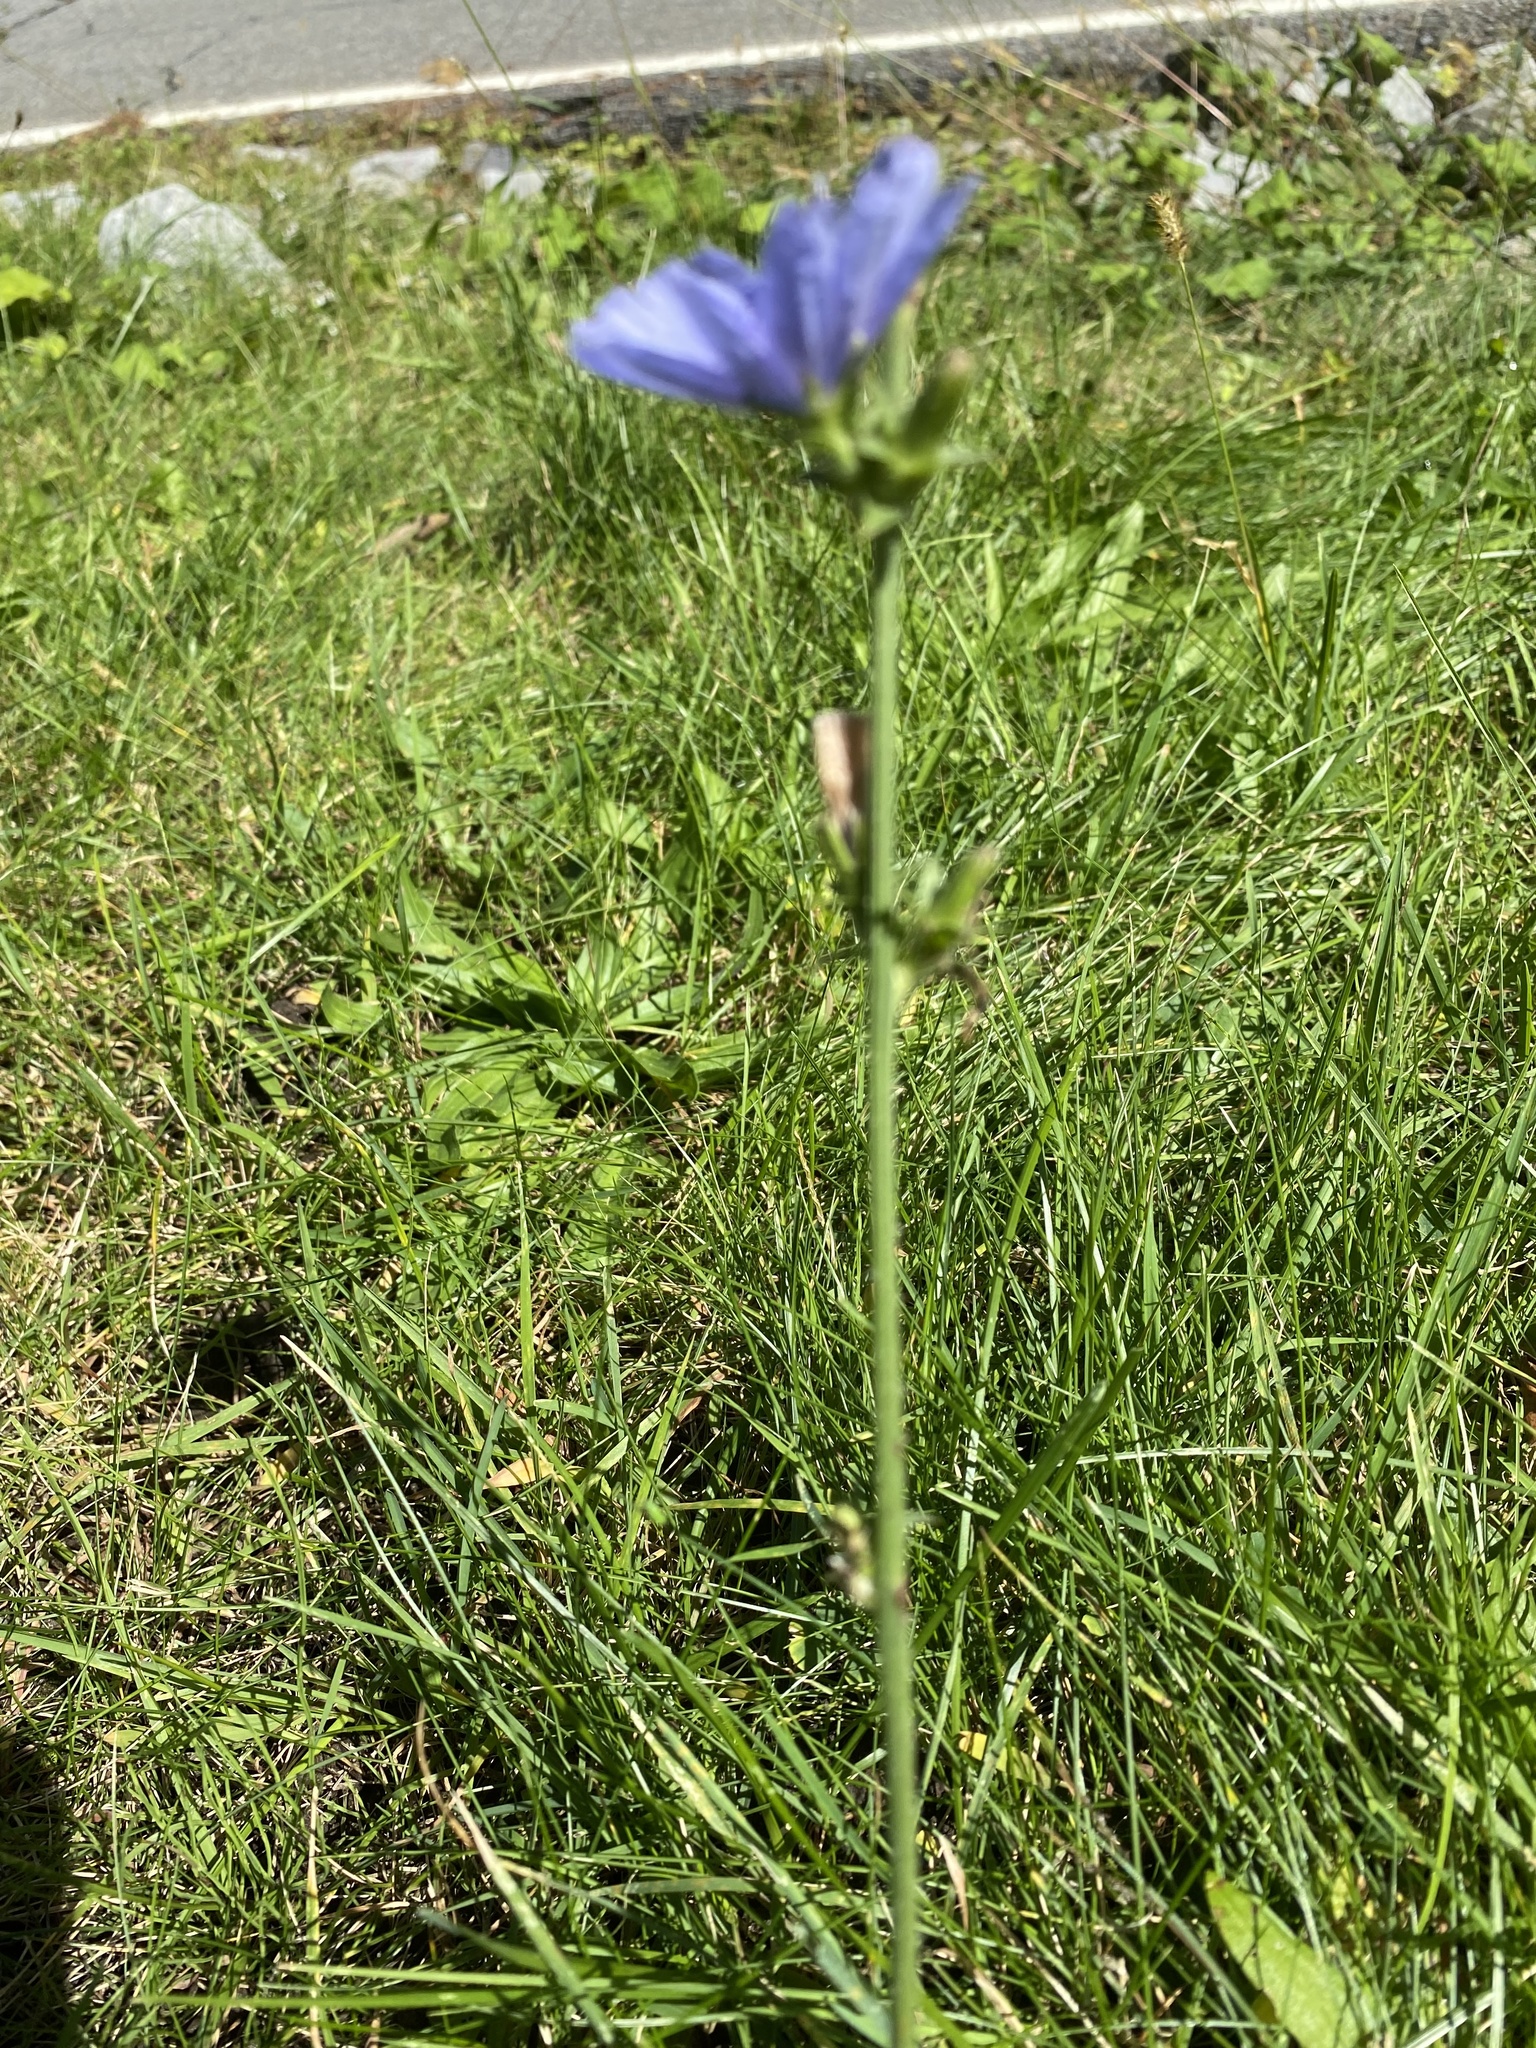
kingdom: Plantae
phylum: Tracheophyta
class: Magnoliopsida
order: Asterales
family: Asteraceae
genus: Cichorium
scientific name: Cichorium intybus
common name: Chicory
